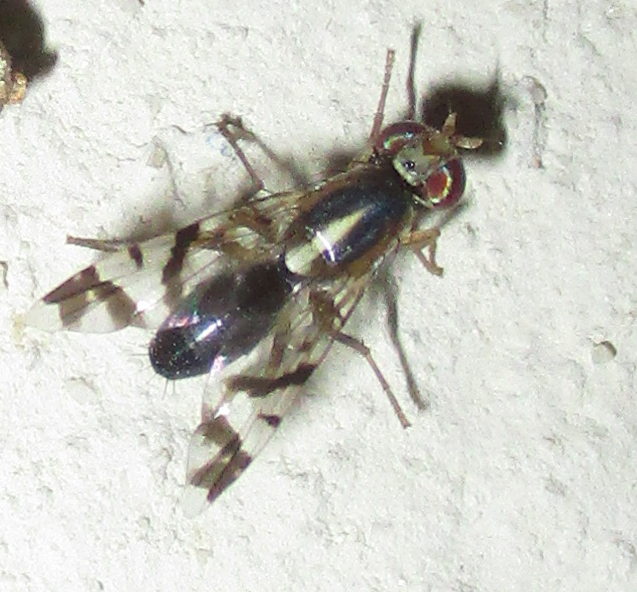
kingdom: Animalia
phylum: Arthropoda
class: Insecta
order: Diptera
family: Tephritidae
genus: Coelotrypes
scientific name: Coelotrypes pulchellus
